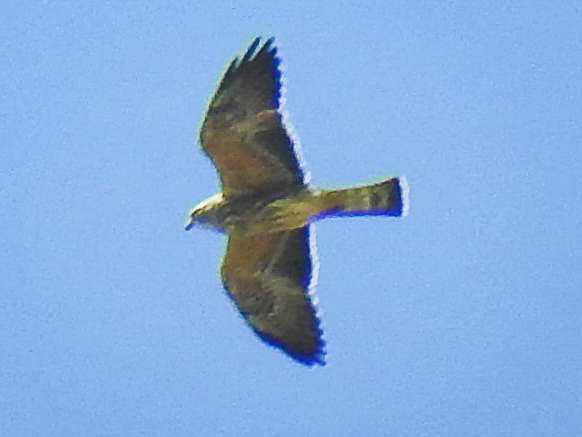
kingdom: Animalia
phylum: Chordata
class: Aves
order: Accipitriformes
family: Accipitridae
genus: Ictinia
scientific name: Ictinia mississippiensis
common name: Mississippi kite
